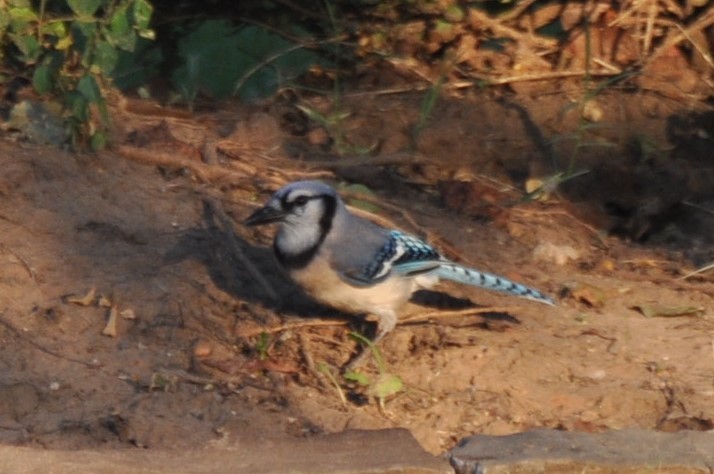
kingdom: Animalia
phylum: Chordata
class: Aves
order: Passeriformes
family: Corvidae
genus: Cyanocitta
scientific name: Cyanocitta cristata
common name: Blue jay
